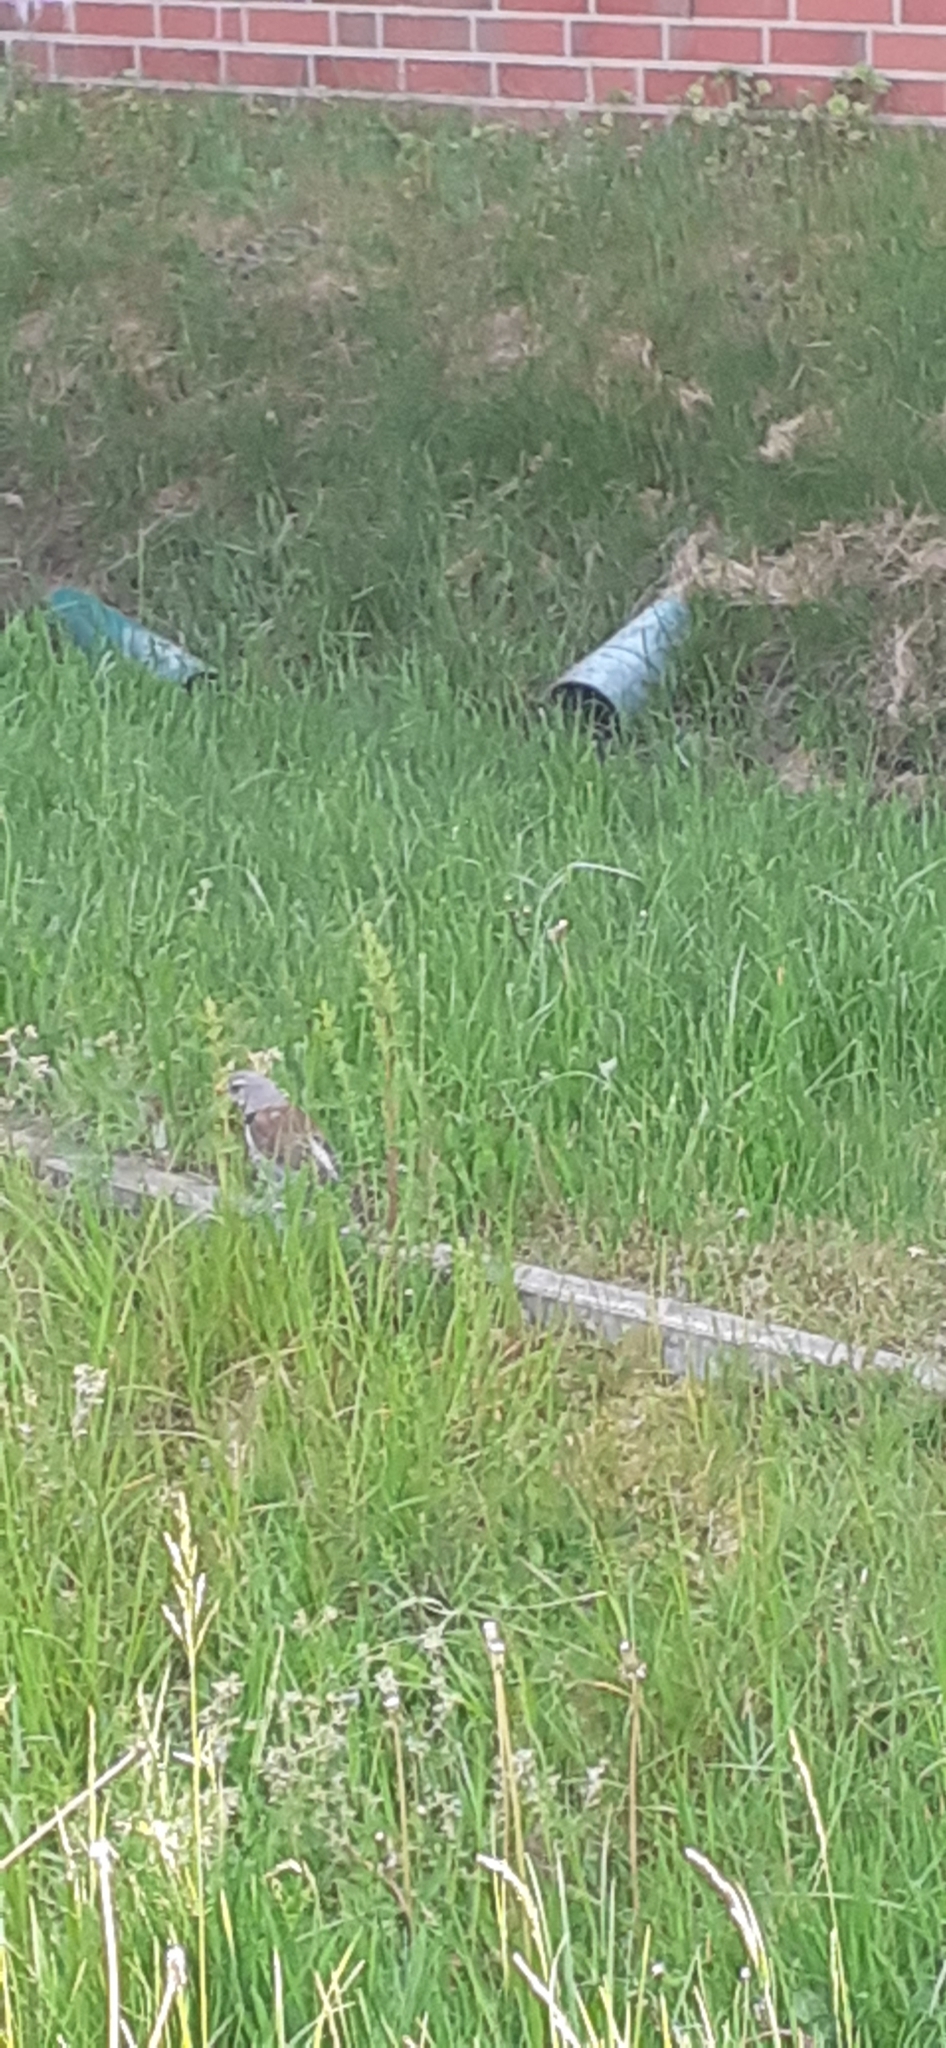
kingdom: Animalia
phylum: Chordata
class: Aves
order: Passeriformes
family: Turdidae
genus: Turdus
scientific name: Turdus pilaris
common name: Fieldfare
